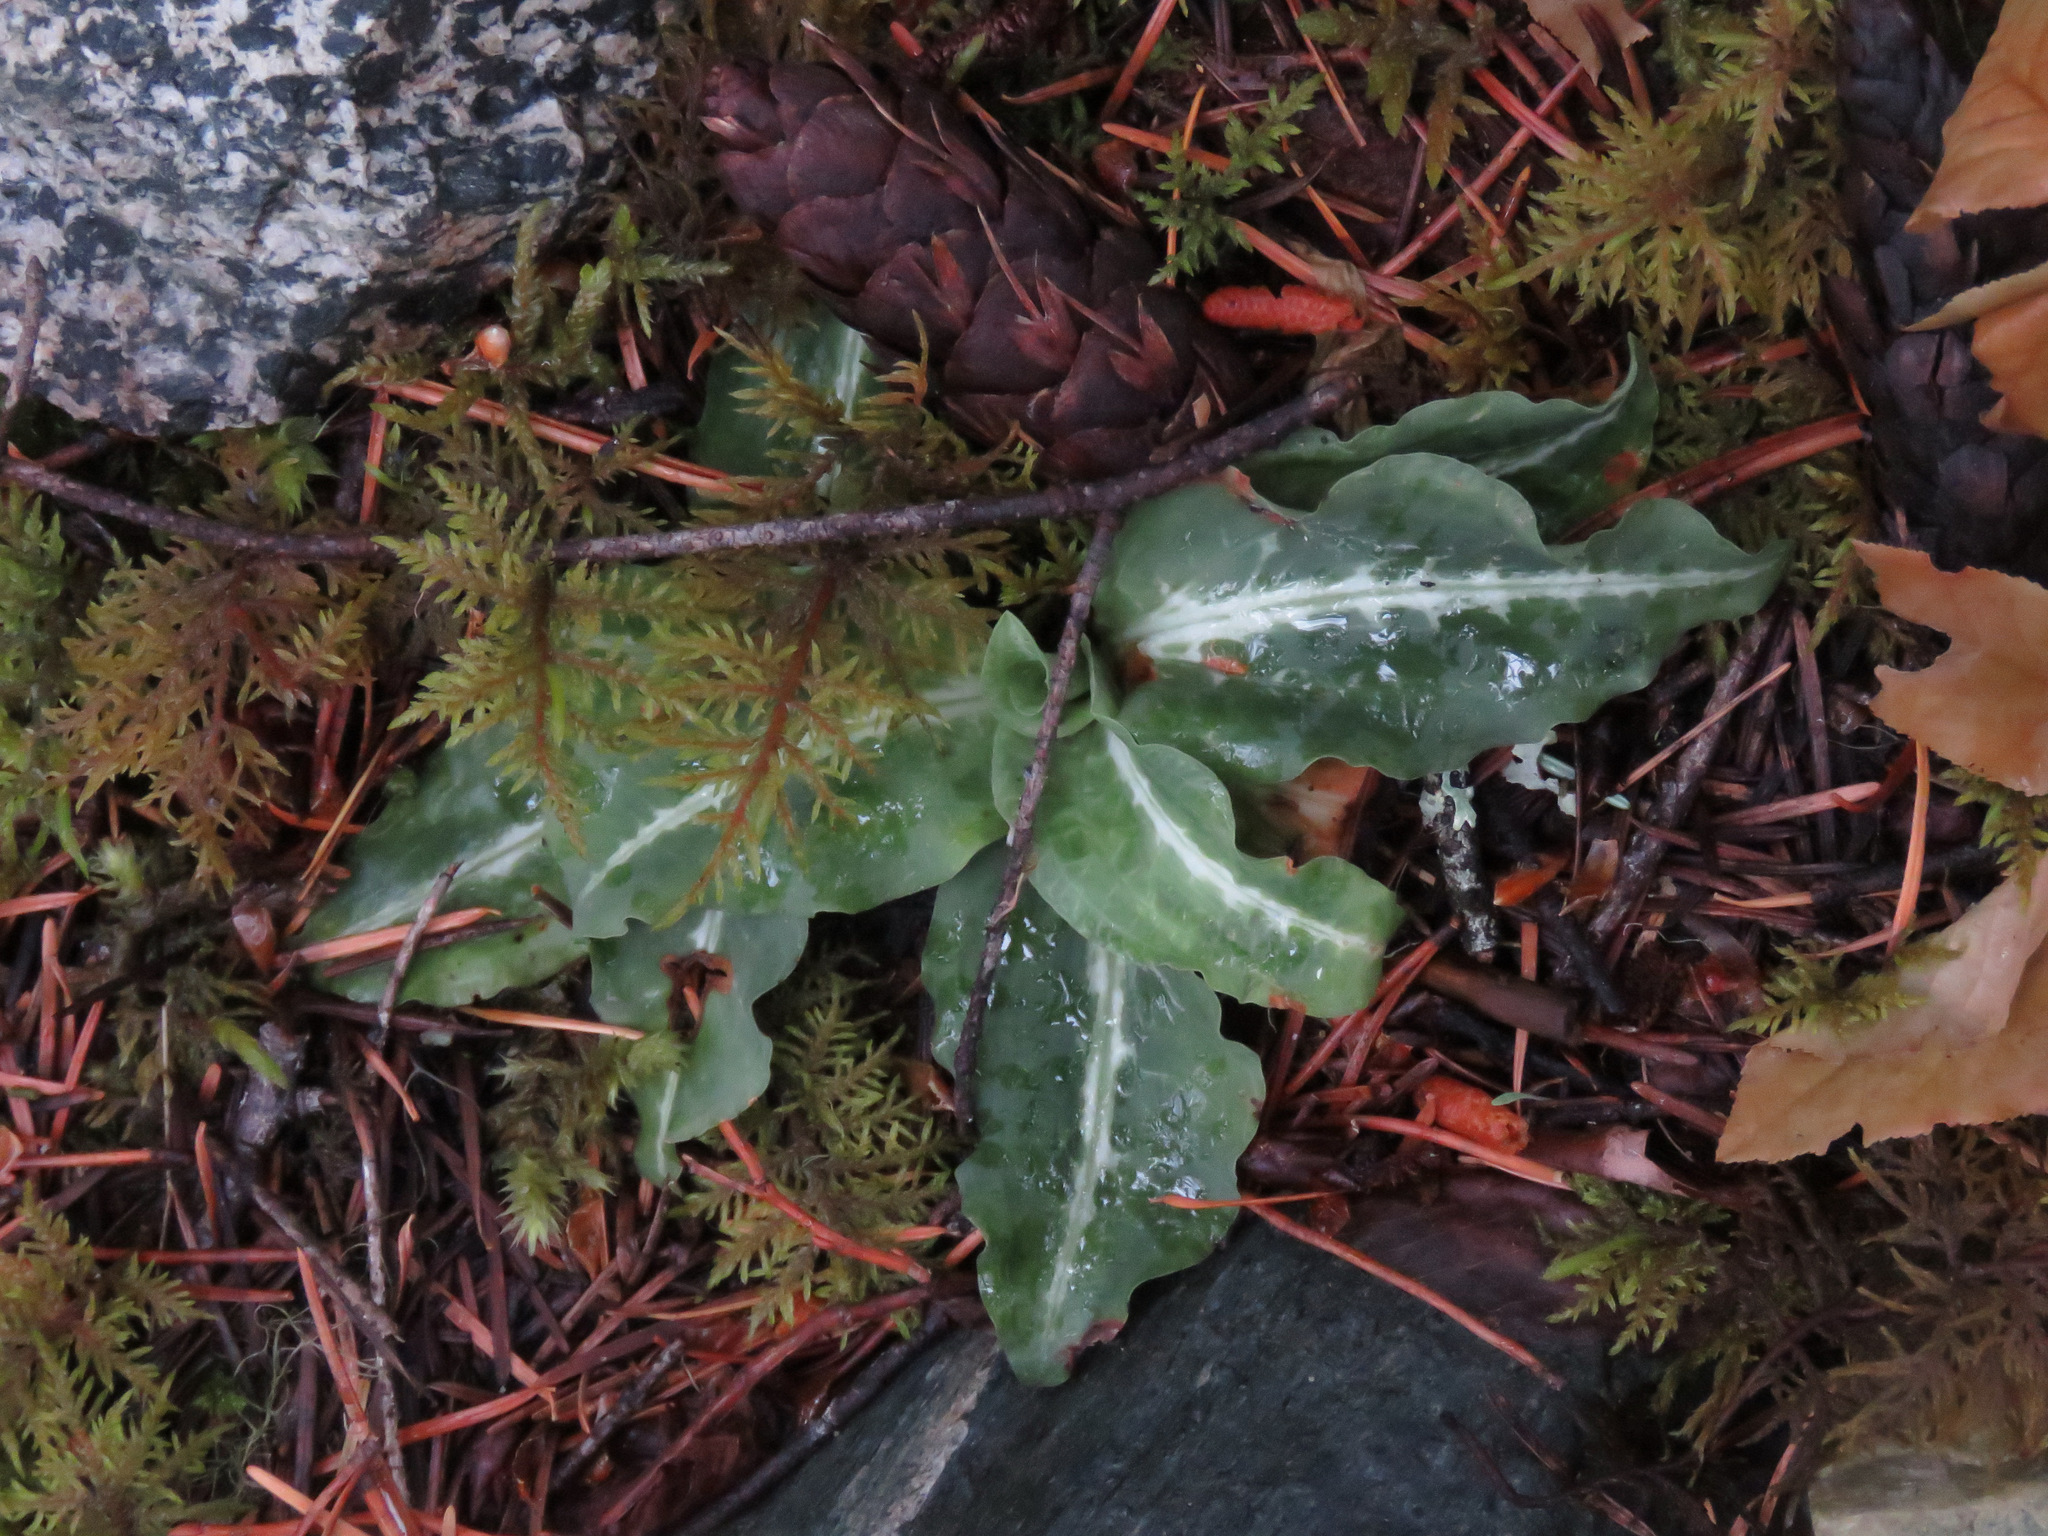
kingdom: Plantae
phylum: Tracheophyta
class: Liliopsida
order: Asparagales
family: Orchidaceae
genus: Goodyera
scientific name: Goodyera oblongifolia
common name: Giant rattlesnake-plantain
